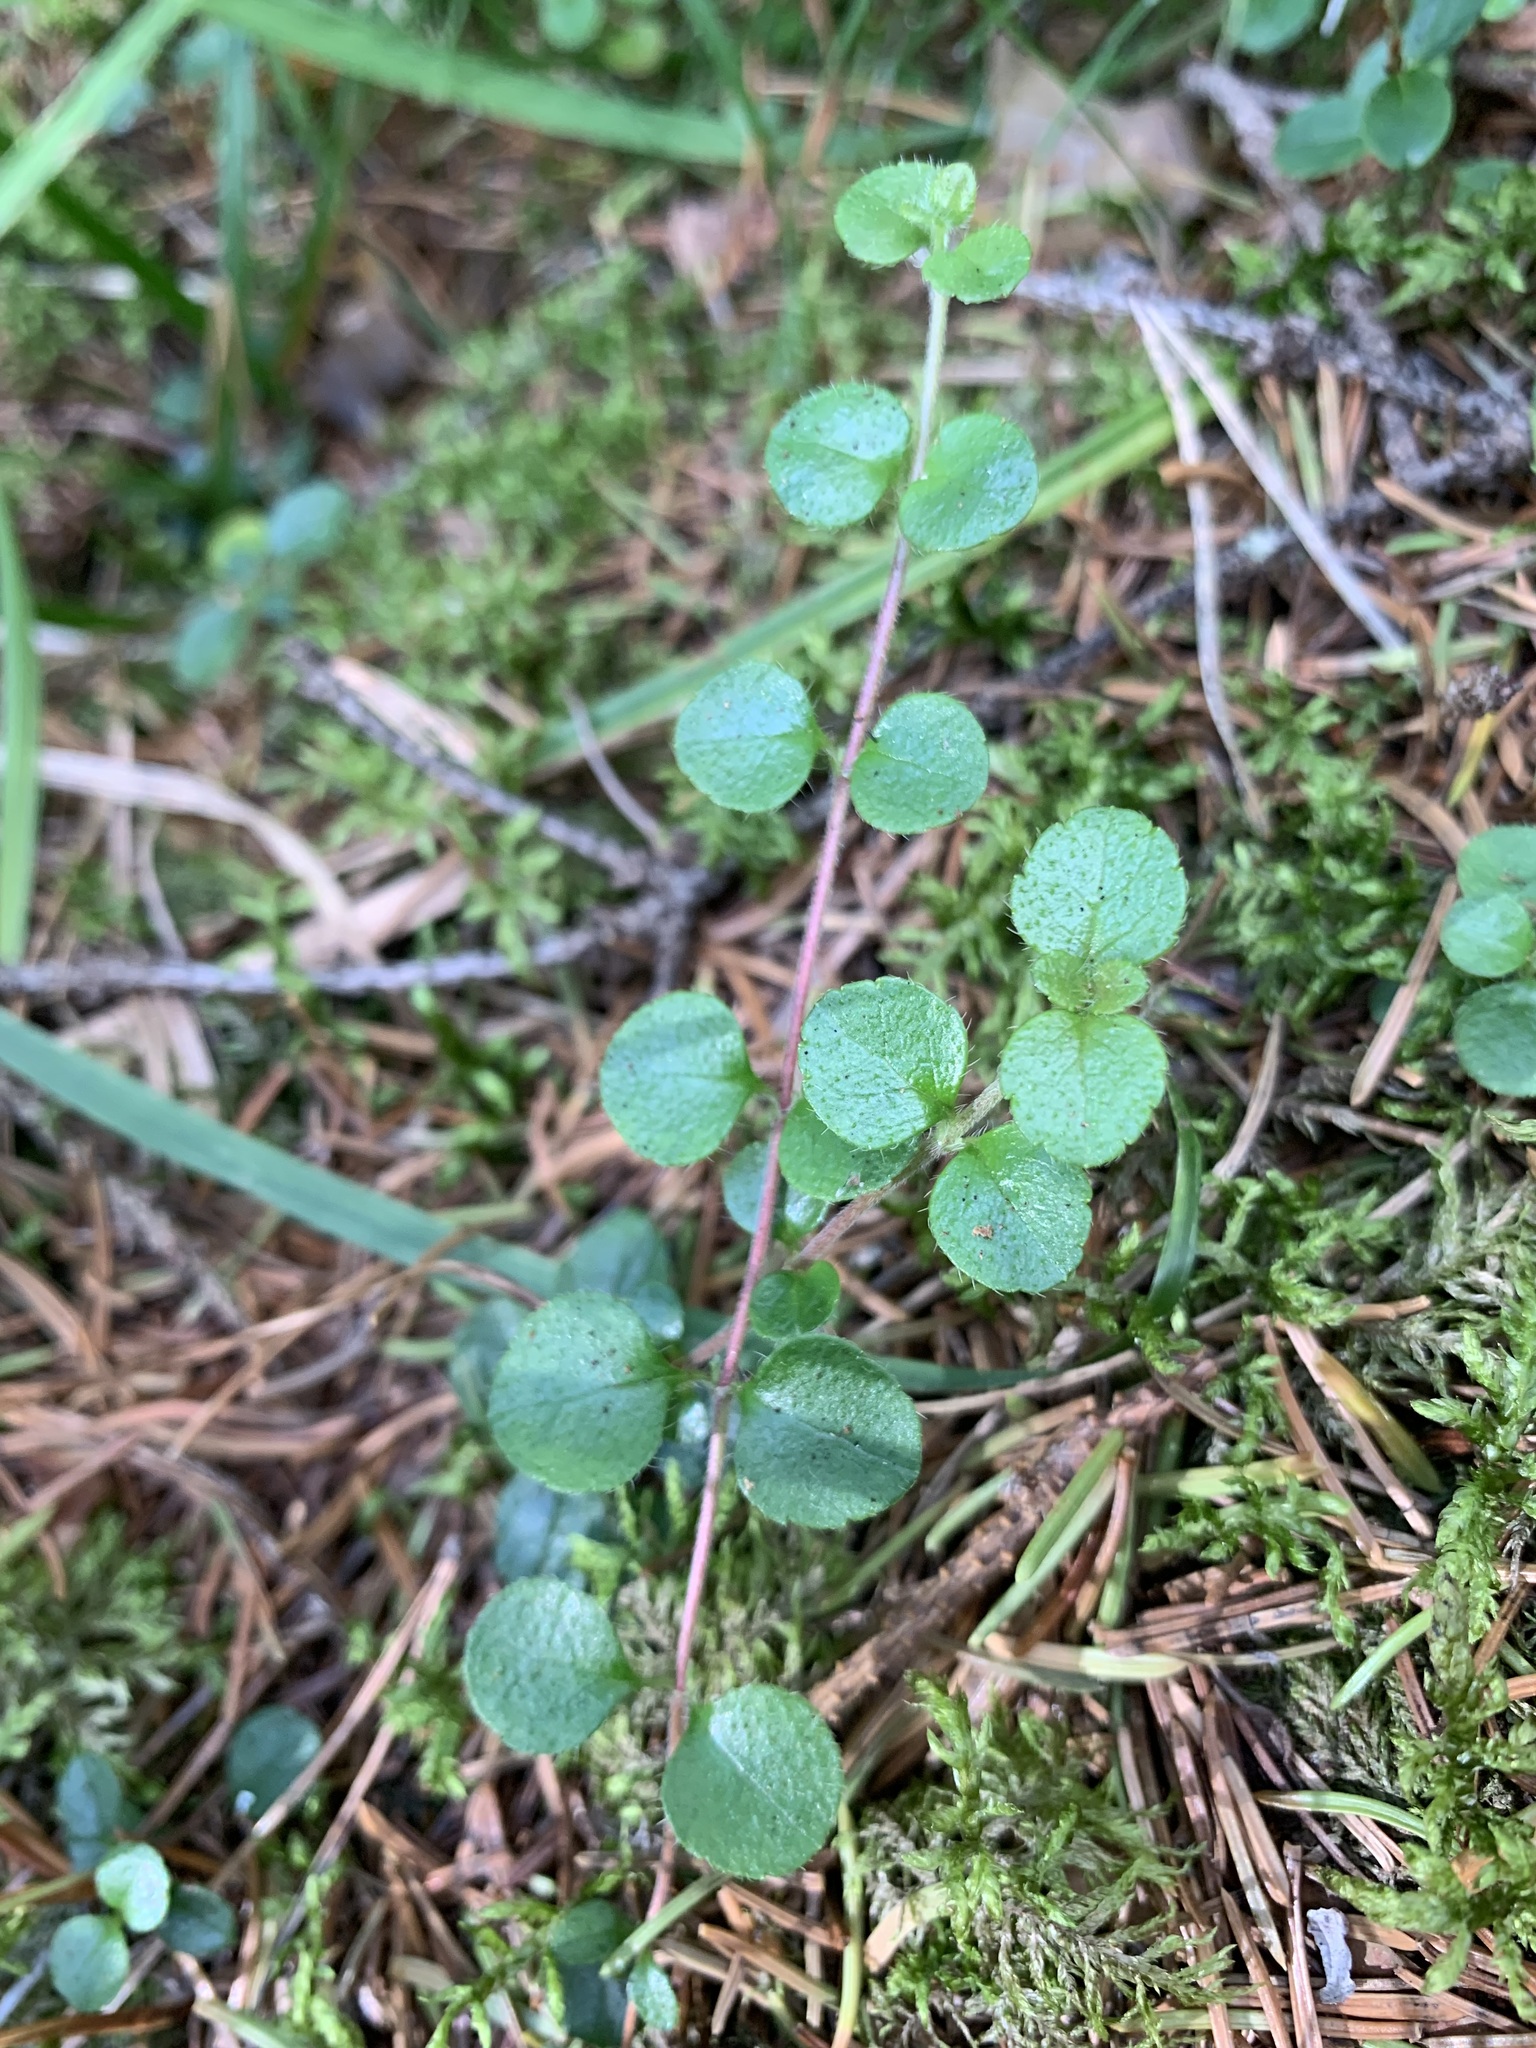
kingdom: Plantae
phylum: Tracheophyta
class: Magnoliopsida
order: Dipsacales
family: Caprifoliaceae
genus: Linnaea
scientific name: Linnaea borealis
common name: Twinflower
